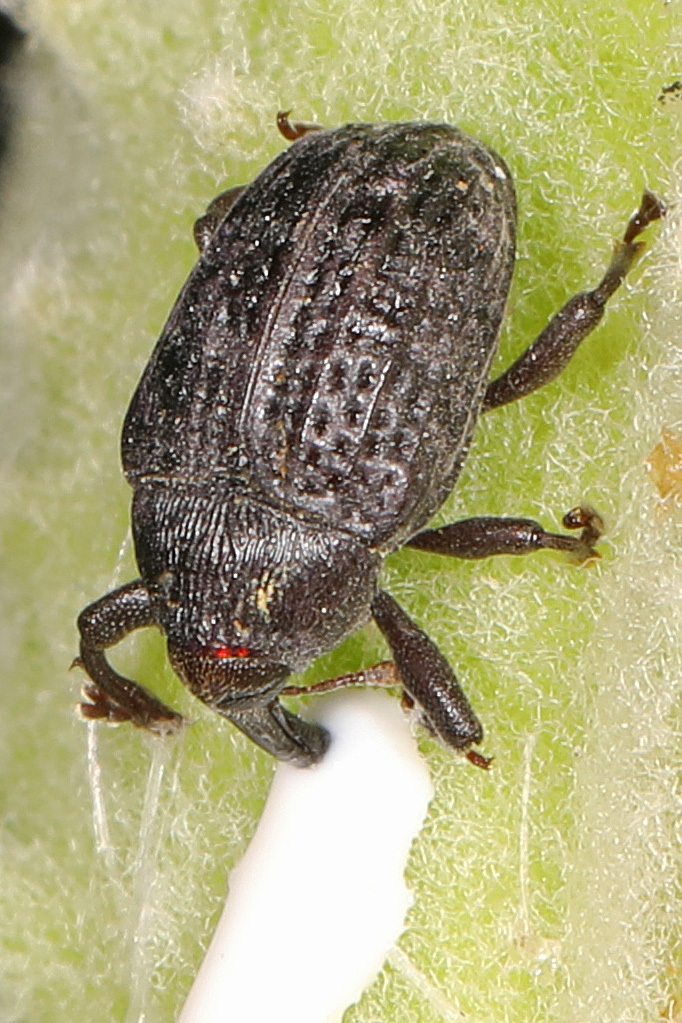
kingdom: Animalia
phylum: Arthropoda
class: Insecta
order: Coleoptera
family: Curculionidae
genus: Rhyssomatus
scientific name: Rhyssomatus lineaticollis
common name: Milkweed stem weevil
